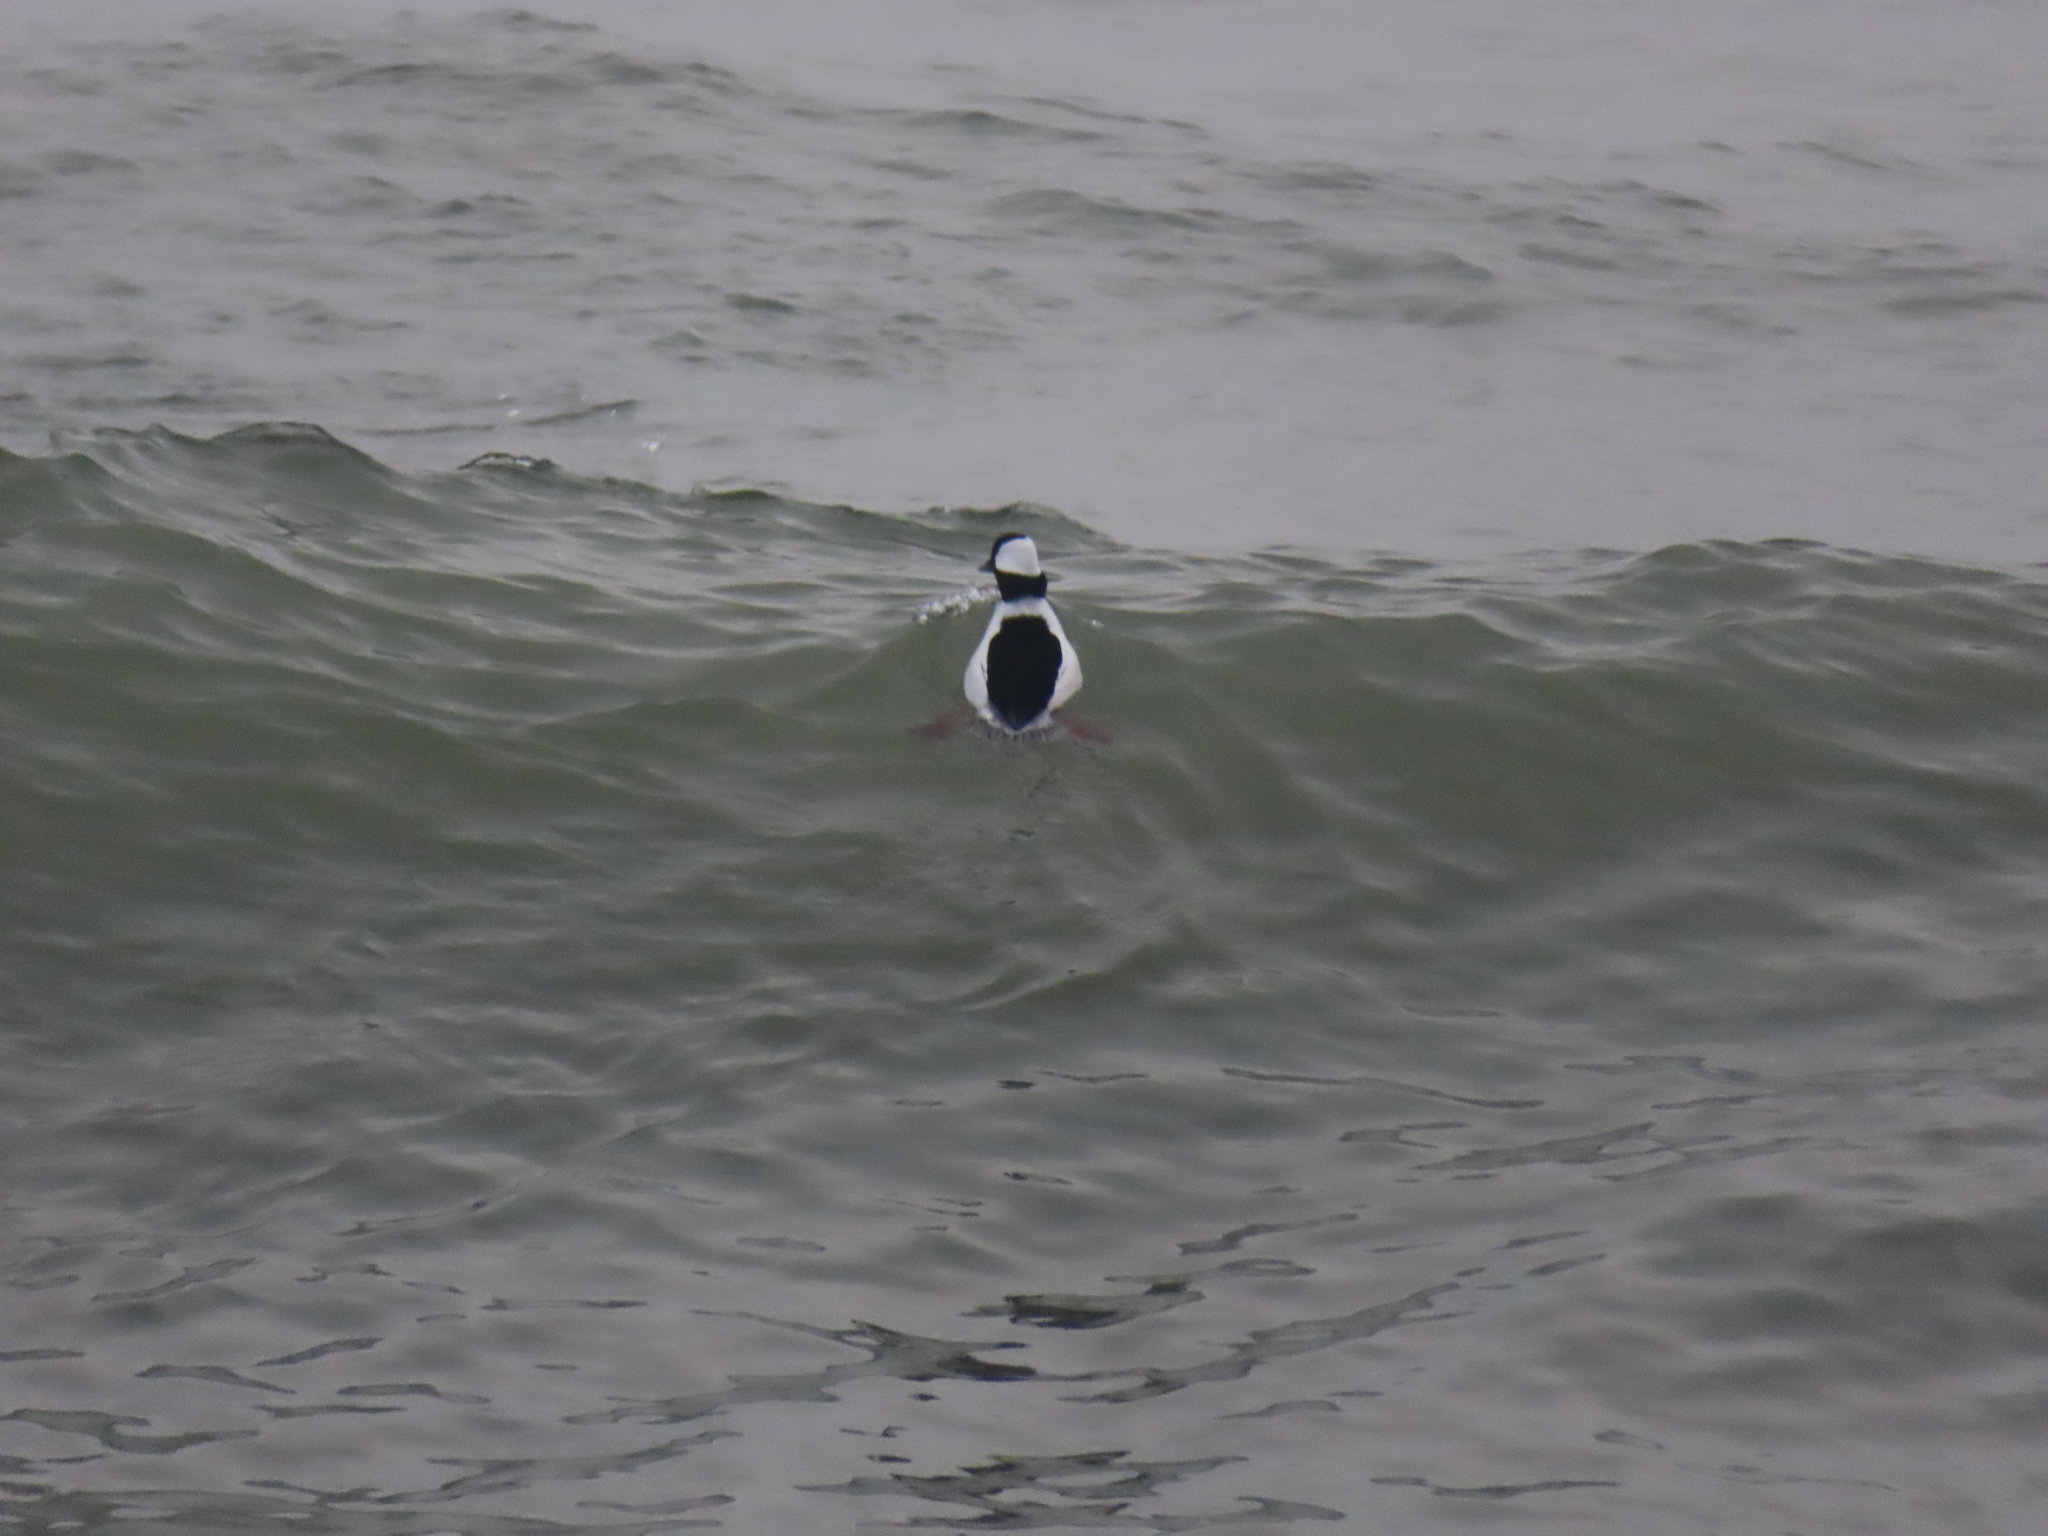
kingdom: Animalia
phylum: Chordata
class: Aves
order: Anseriformes
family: Anatidae
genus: Bucephala
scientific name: Bucephala albeola
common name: Bufflehead
